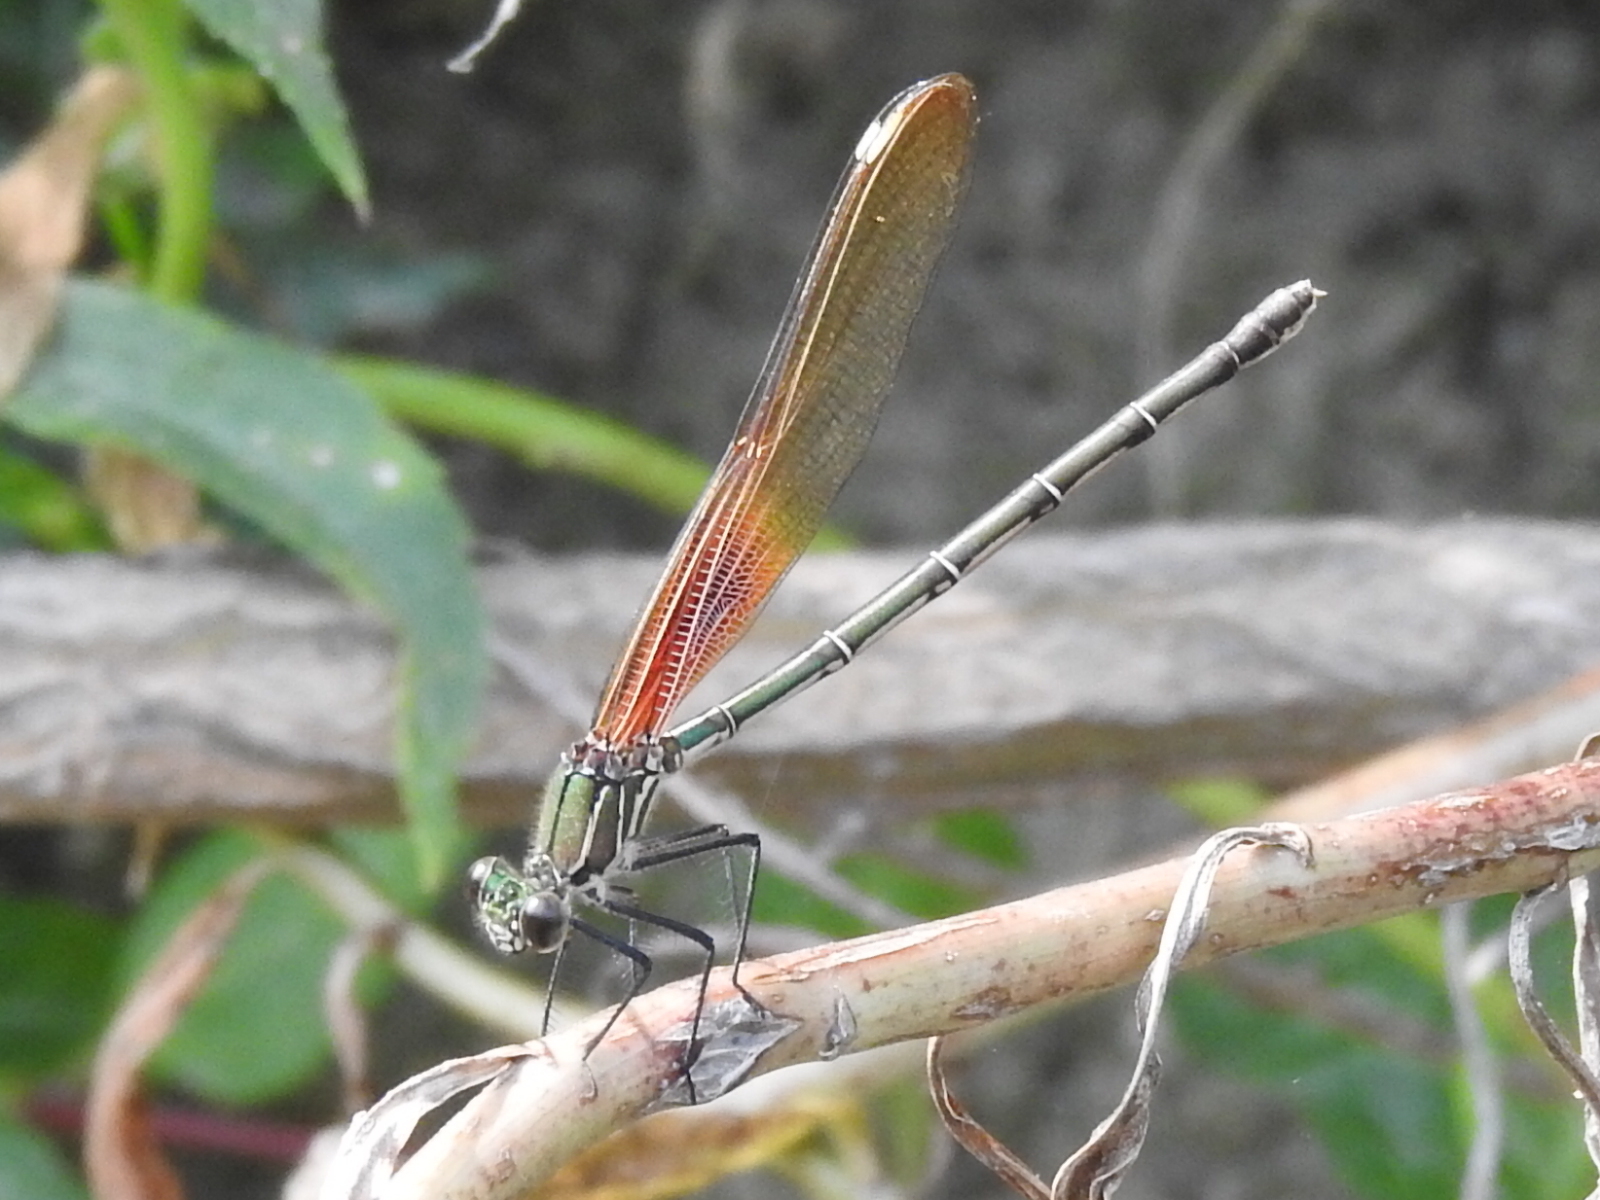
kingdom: Animalia
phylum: Arthropoda
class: Insecta
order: Odonata
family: Calopterygidae
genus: Hetaerina
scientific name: Hetaerina americana
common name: American rubyspot
